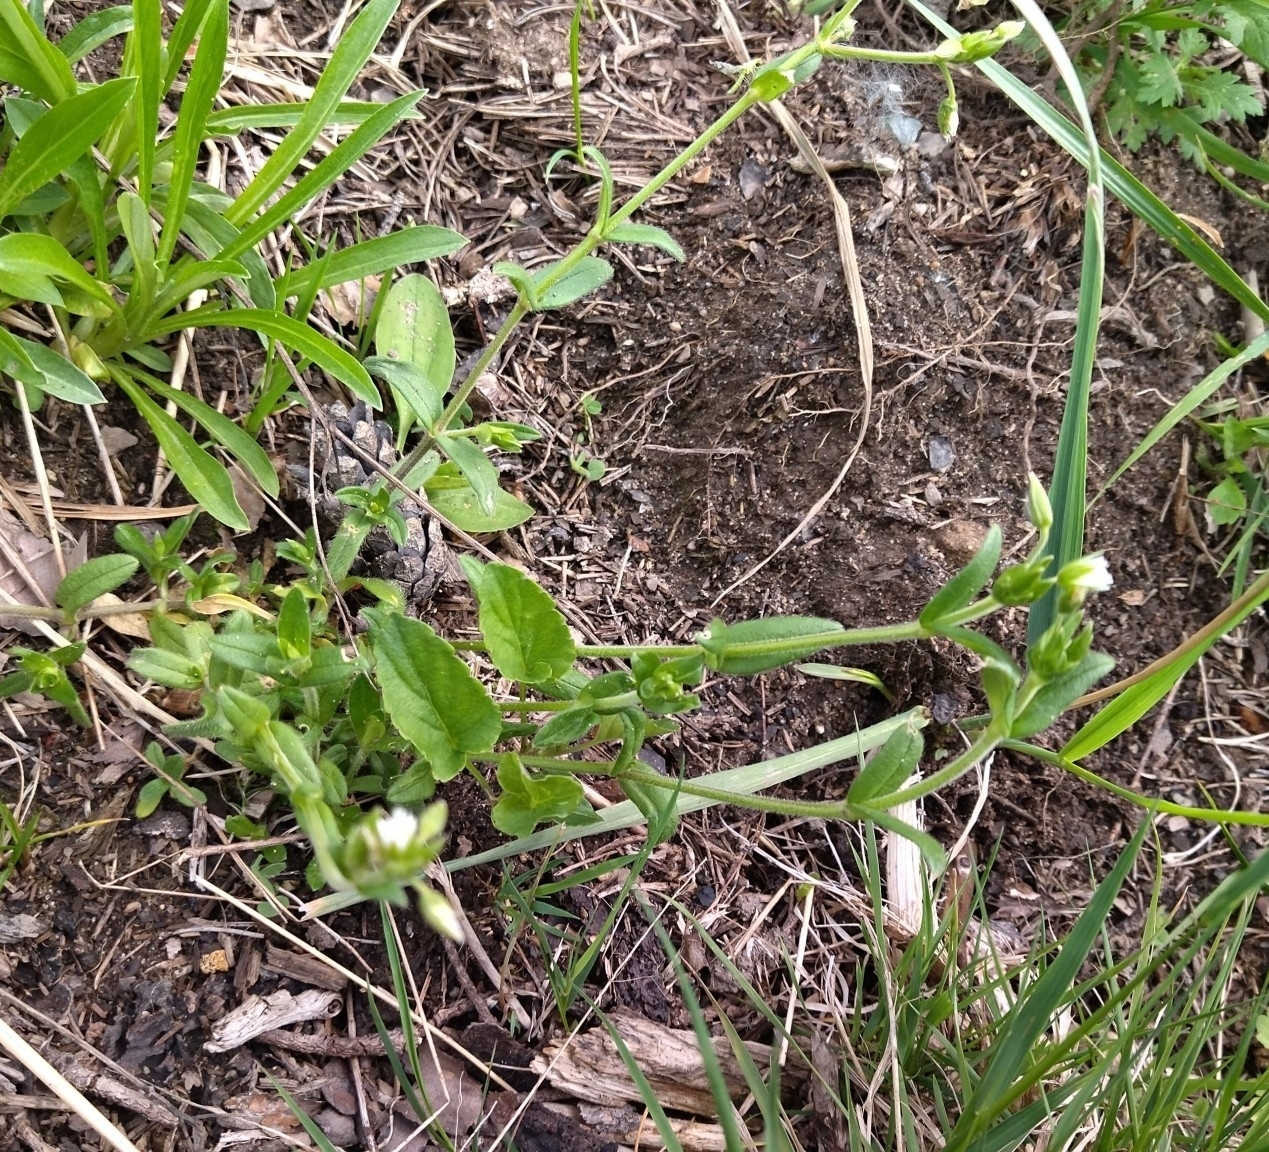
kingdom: Plantae
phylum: Tracheophyta
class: Magnoliopsida
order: Caryophyllales
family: Caryophyllaceae
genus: Cerastium
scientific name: Cerastium holosteoides
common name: Big chickweed
